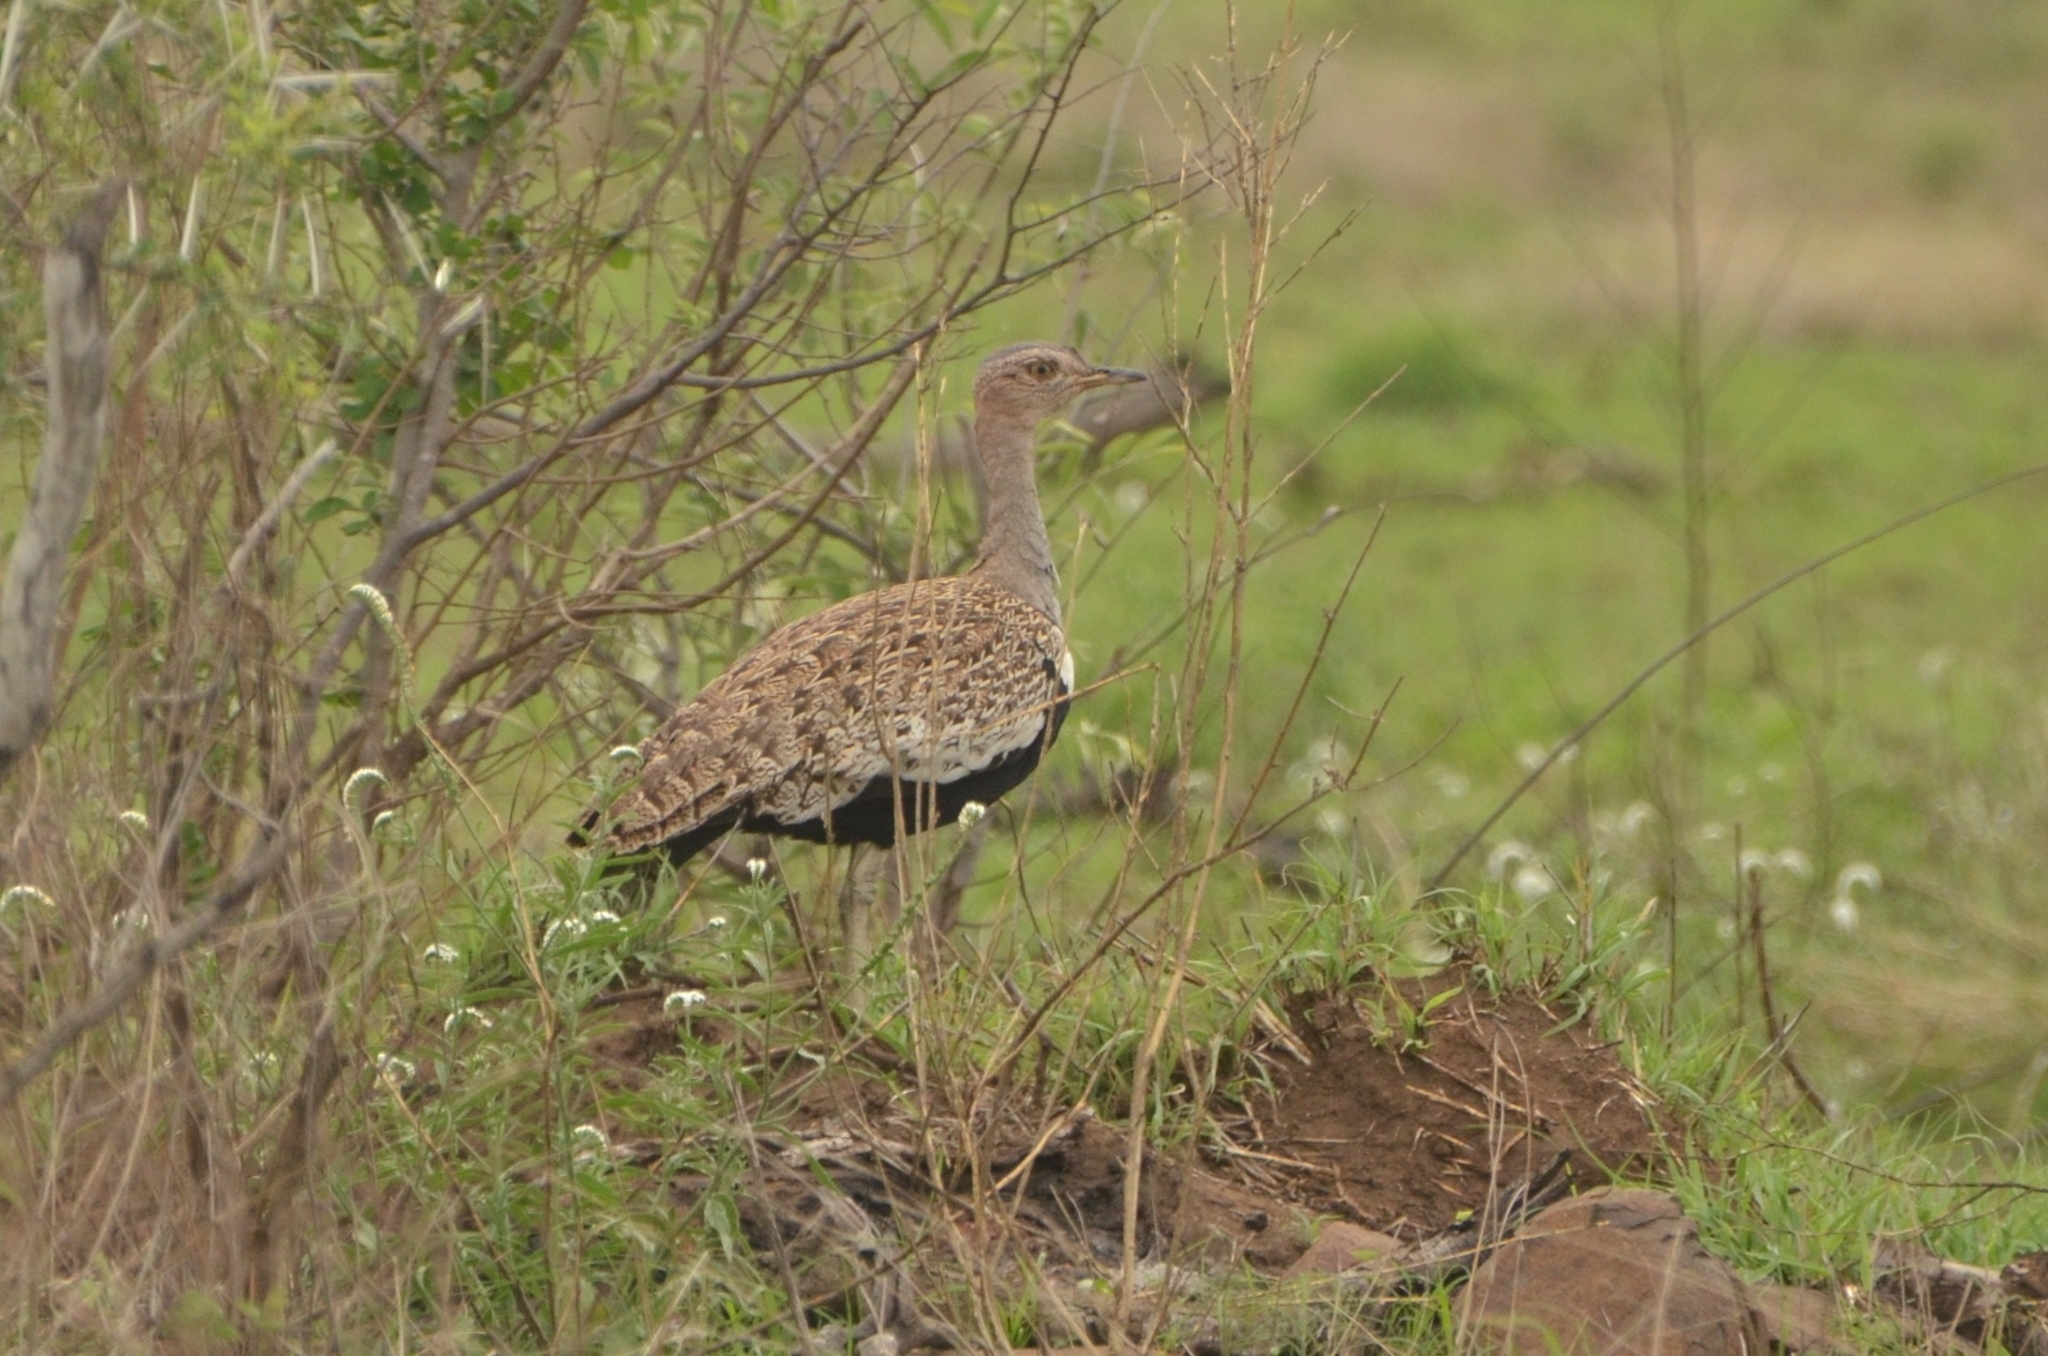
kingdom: Animalia
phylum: Chordata
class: Aves
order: Otidiformes
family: Otididae
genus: Lophotis
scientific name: Lophotis ruficrista
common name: Red-crested korhaan
